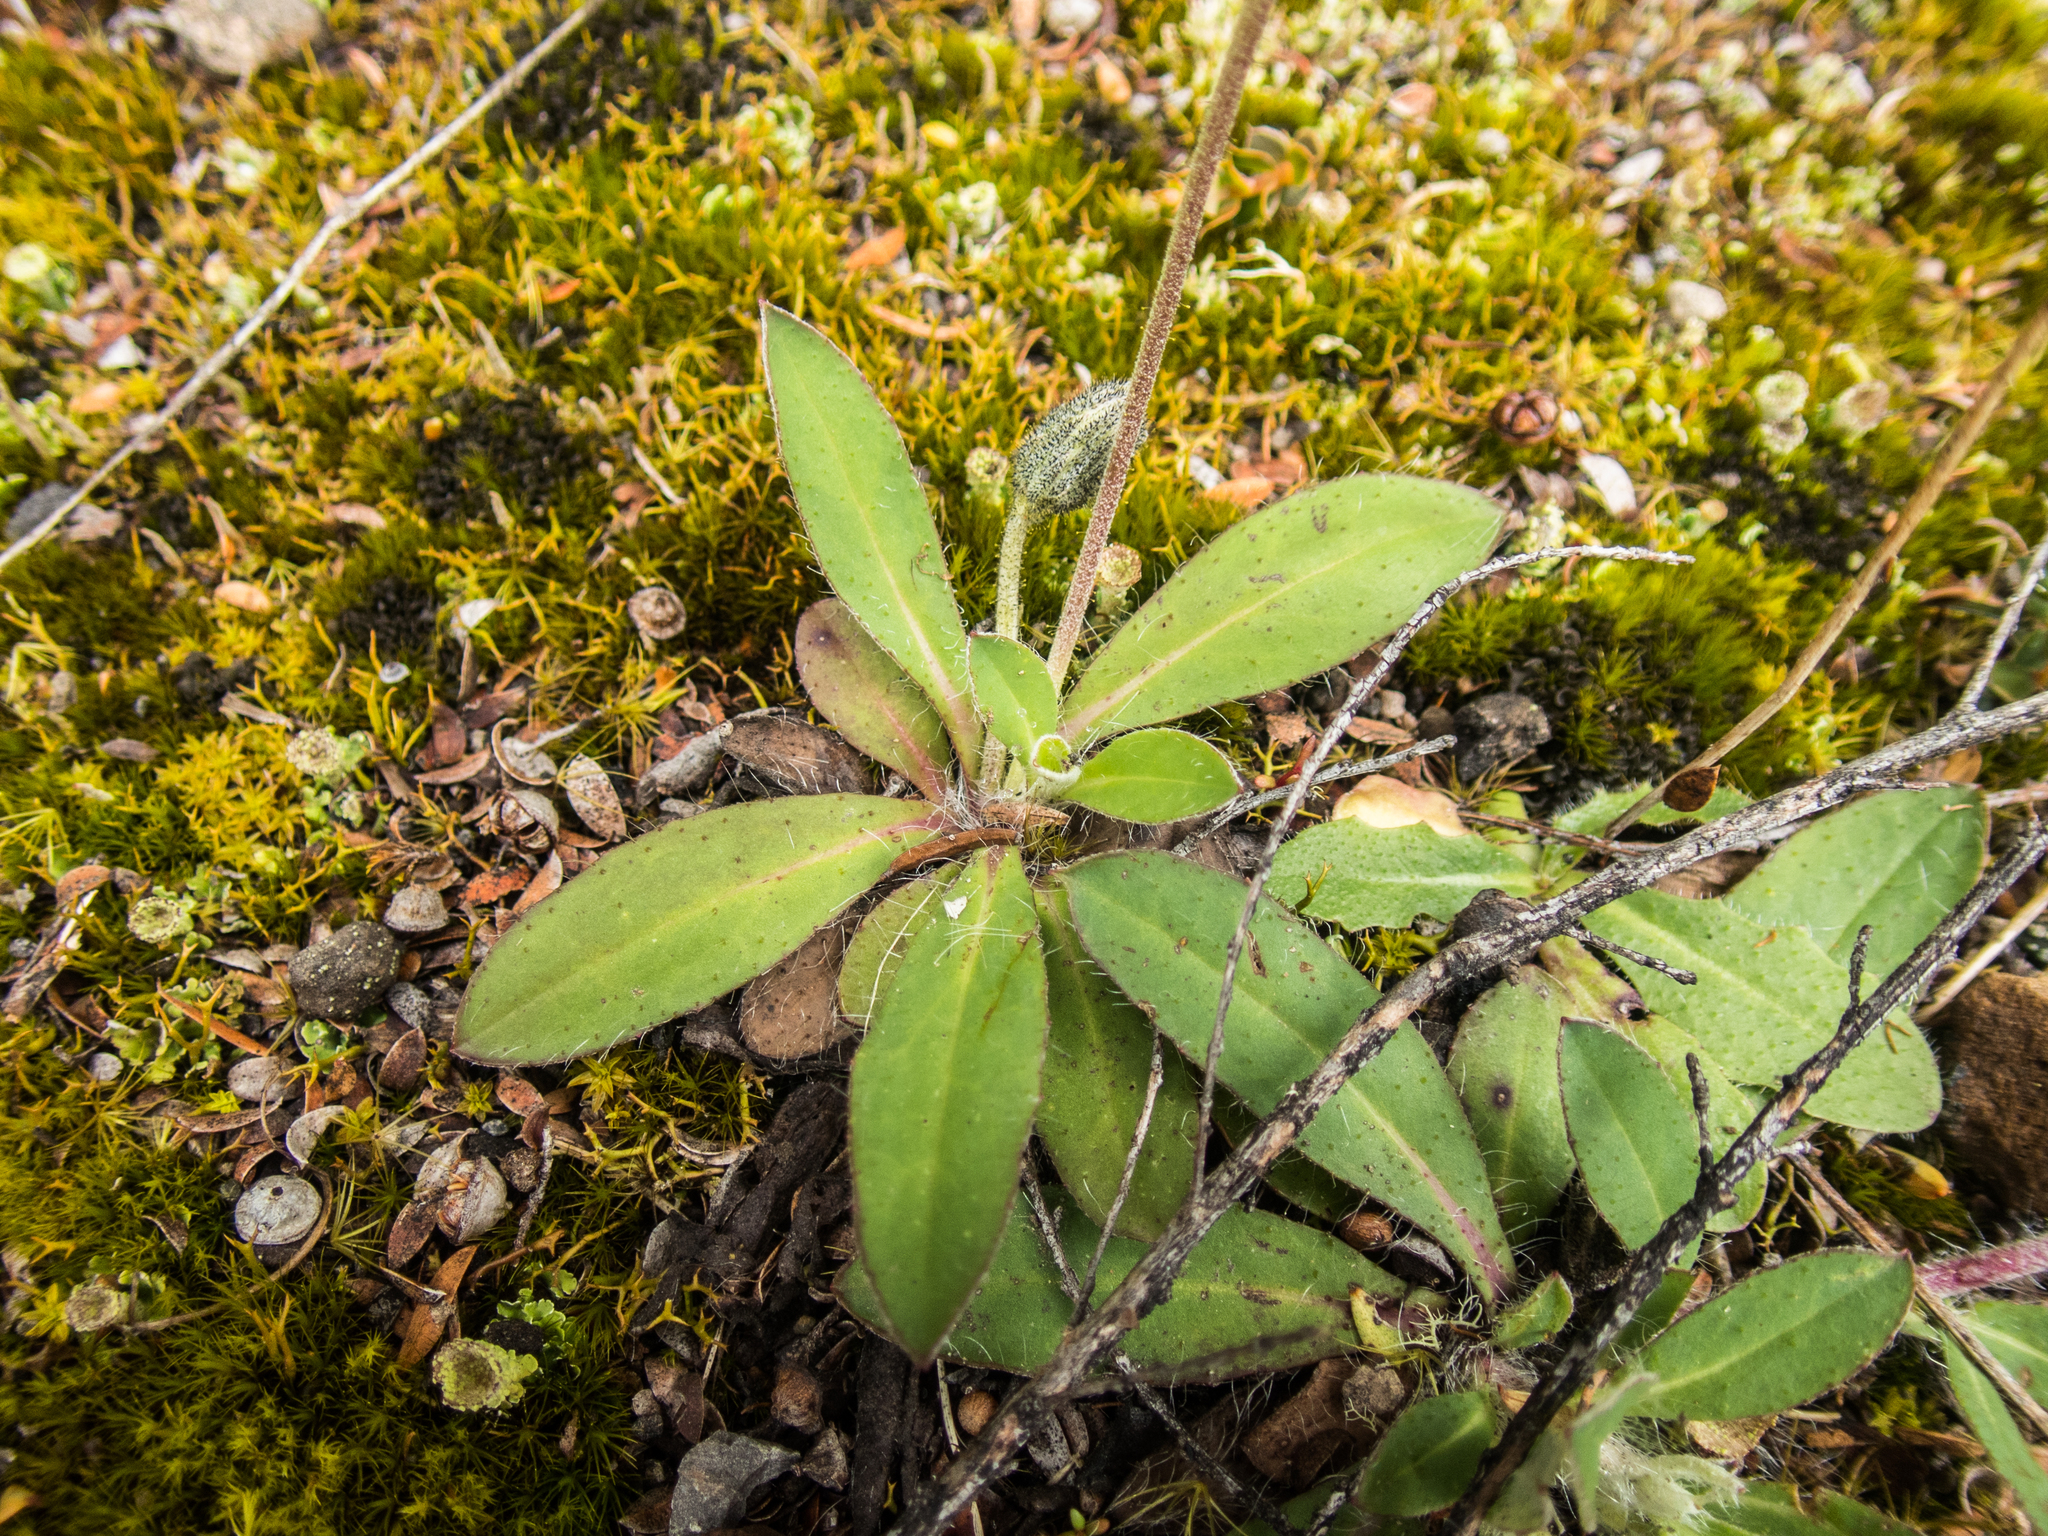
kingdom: Plantae
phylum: Tracheophyta
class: Magnoliopsida
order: Asterales
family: Asteraceae
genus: Pilosella
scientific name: Pilosella officinarum
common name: Mouse-ear hawkweed
